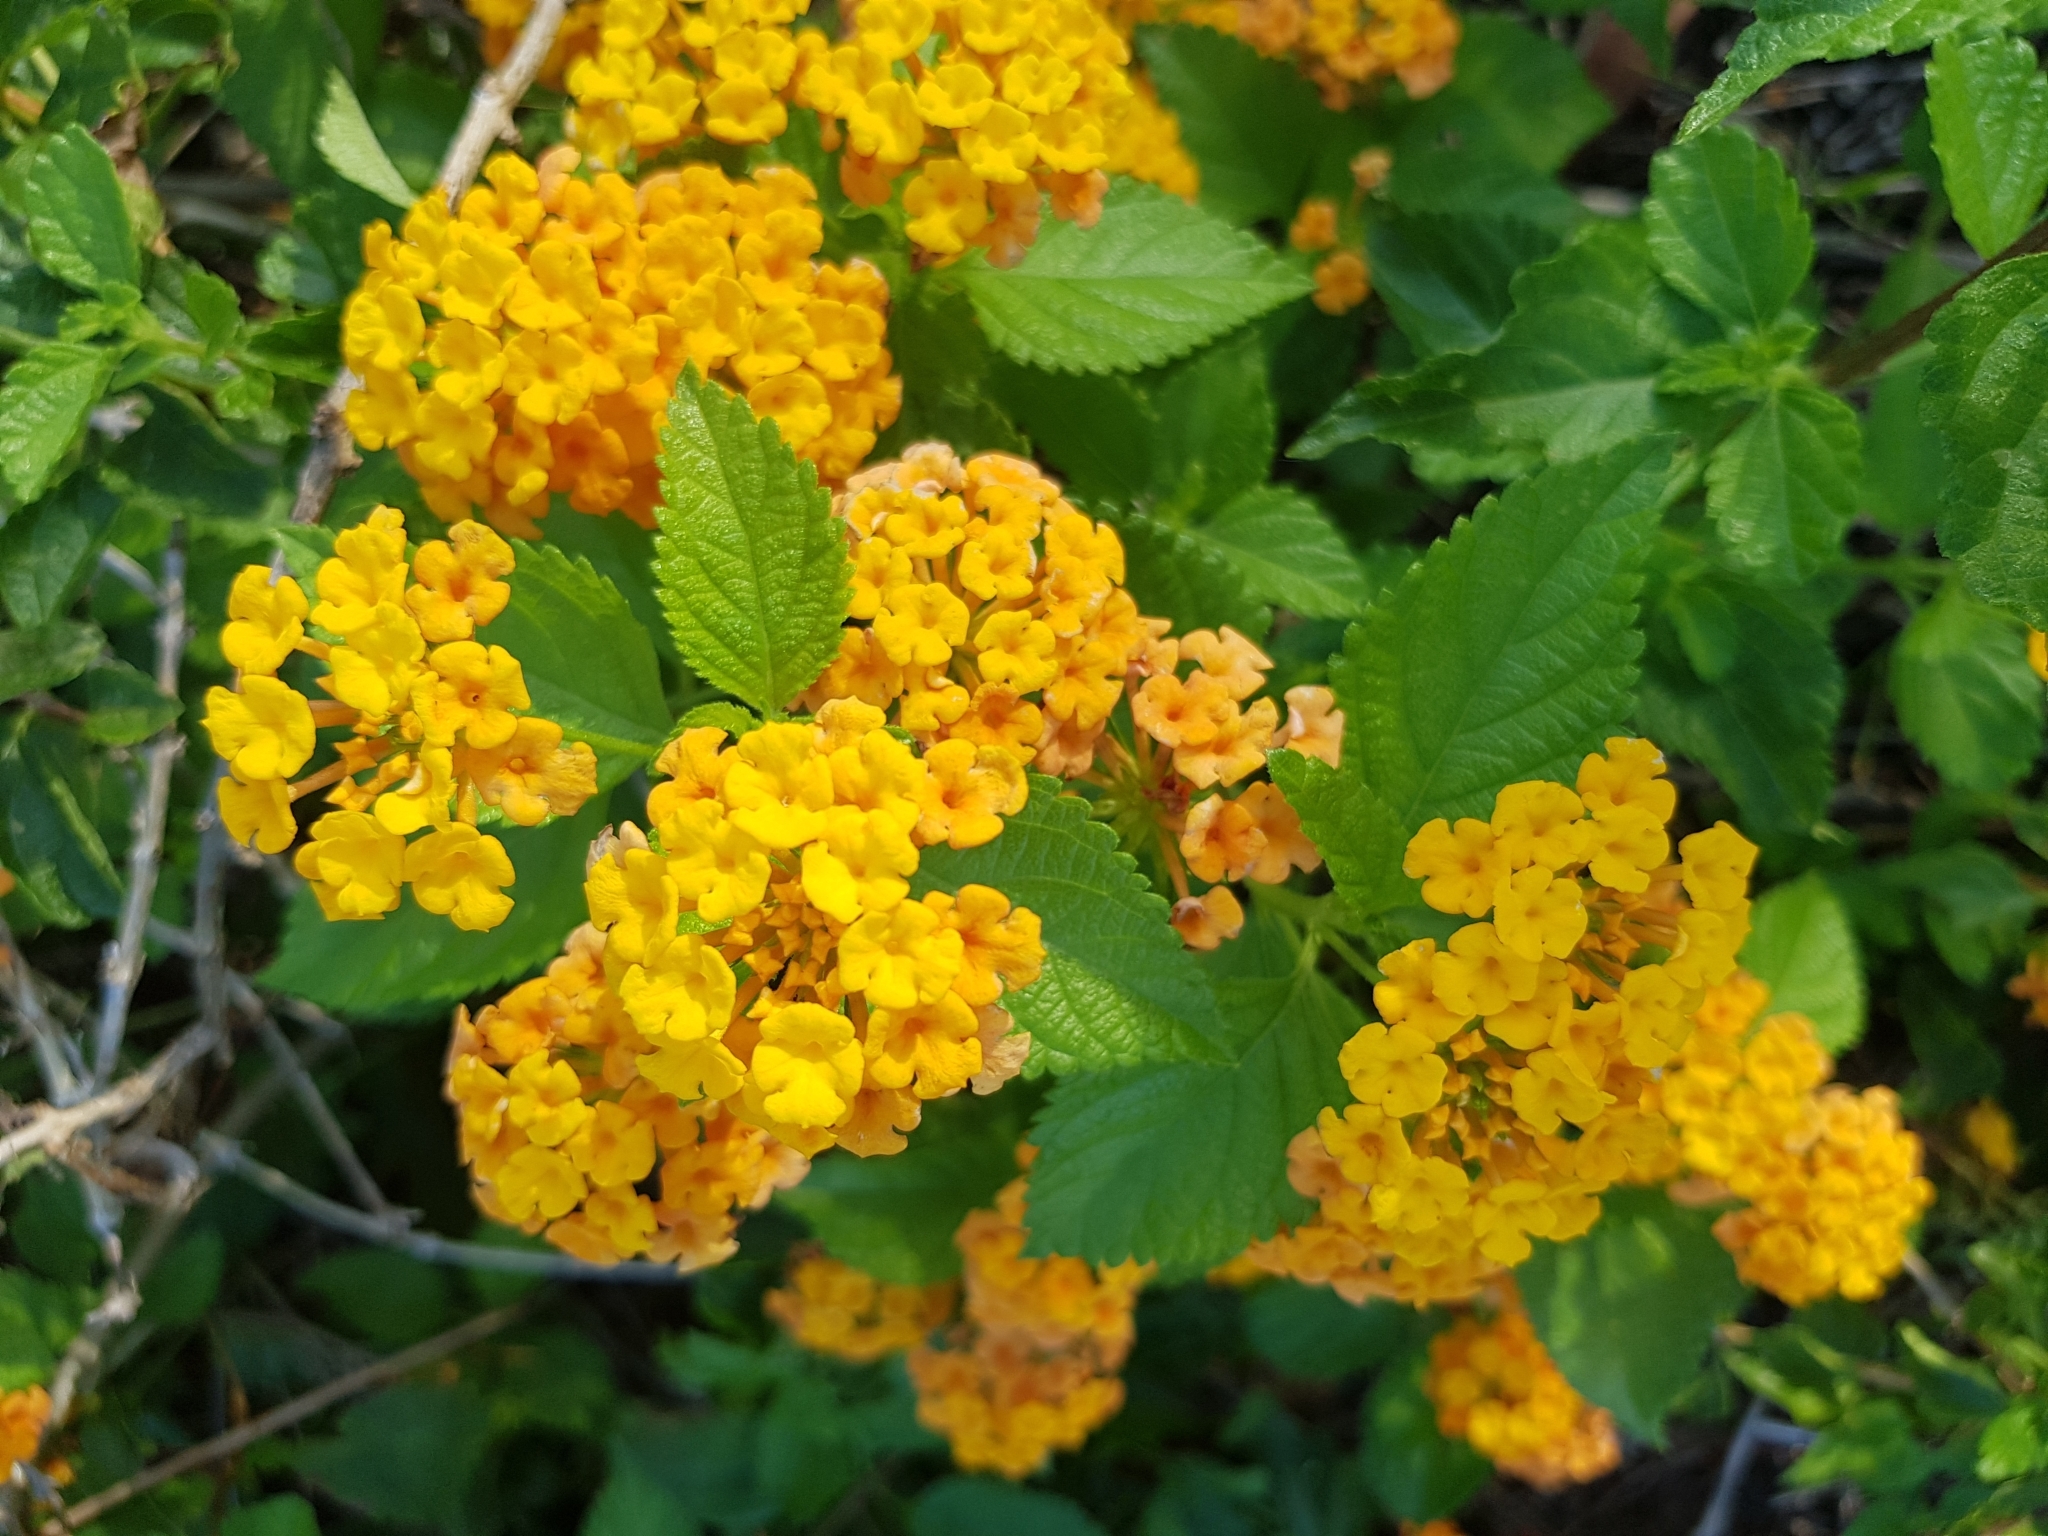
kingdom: Plantae
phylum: Tracheophyta
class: Magnoliopsida
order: Lamiales
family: Verbenaceae
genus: Lantana
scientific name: Lantana polyacantha
